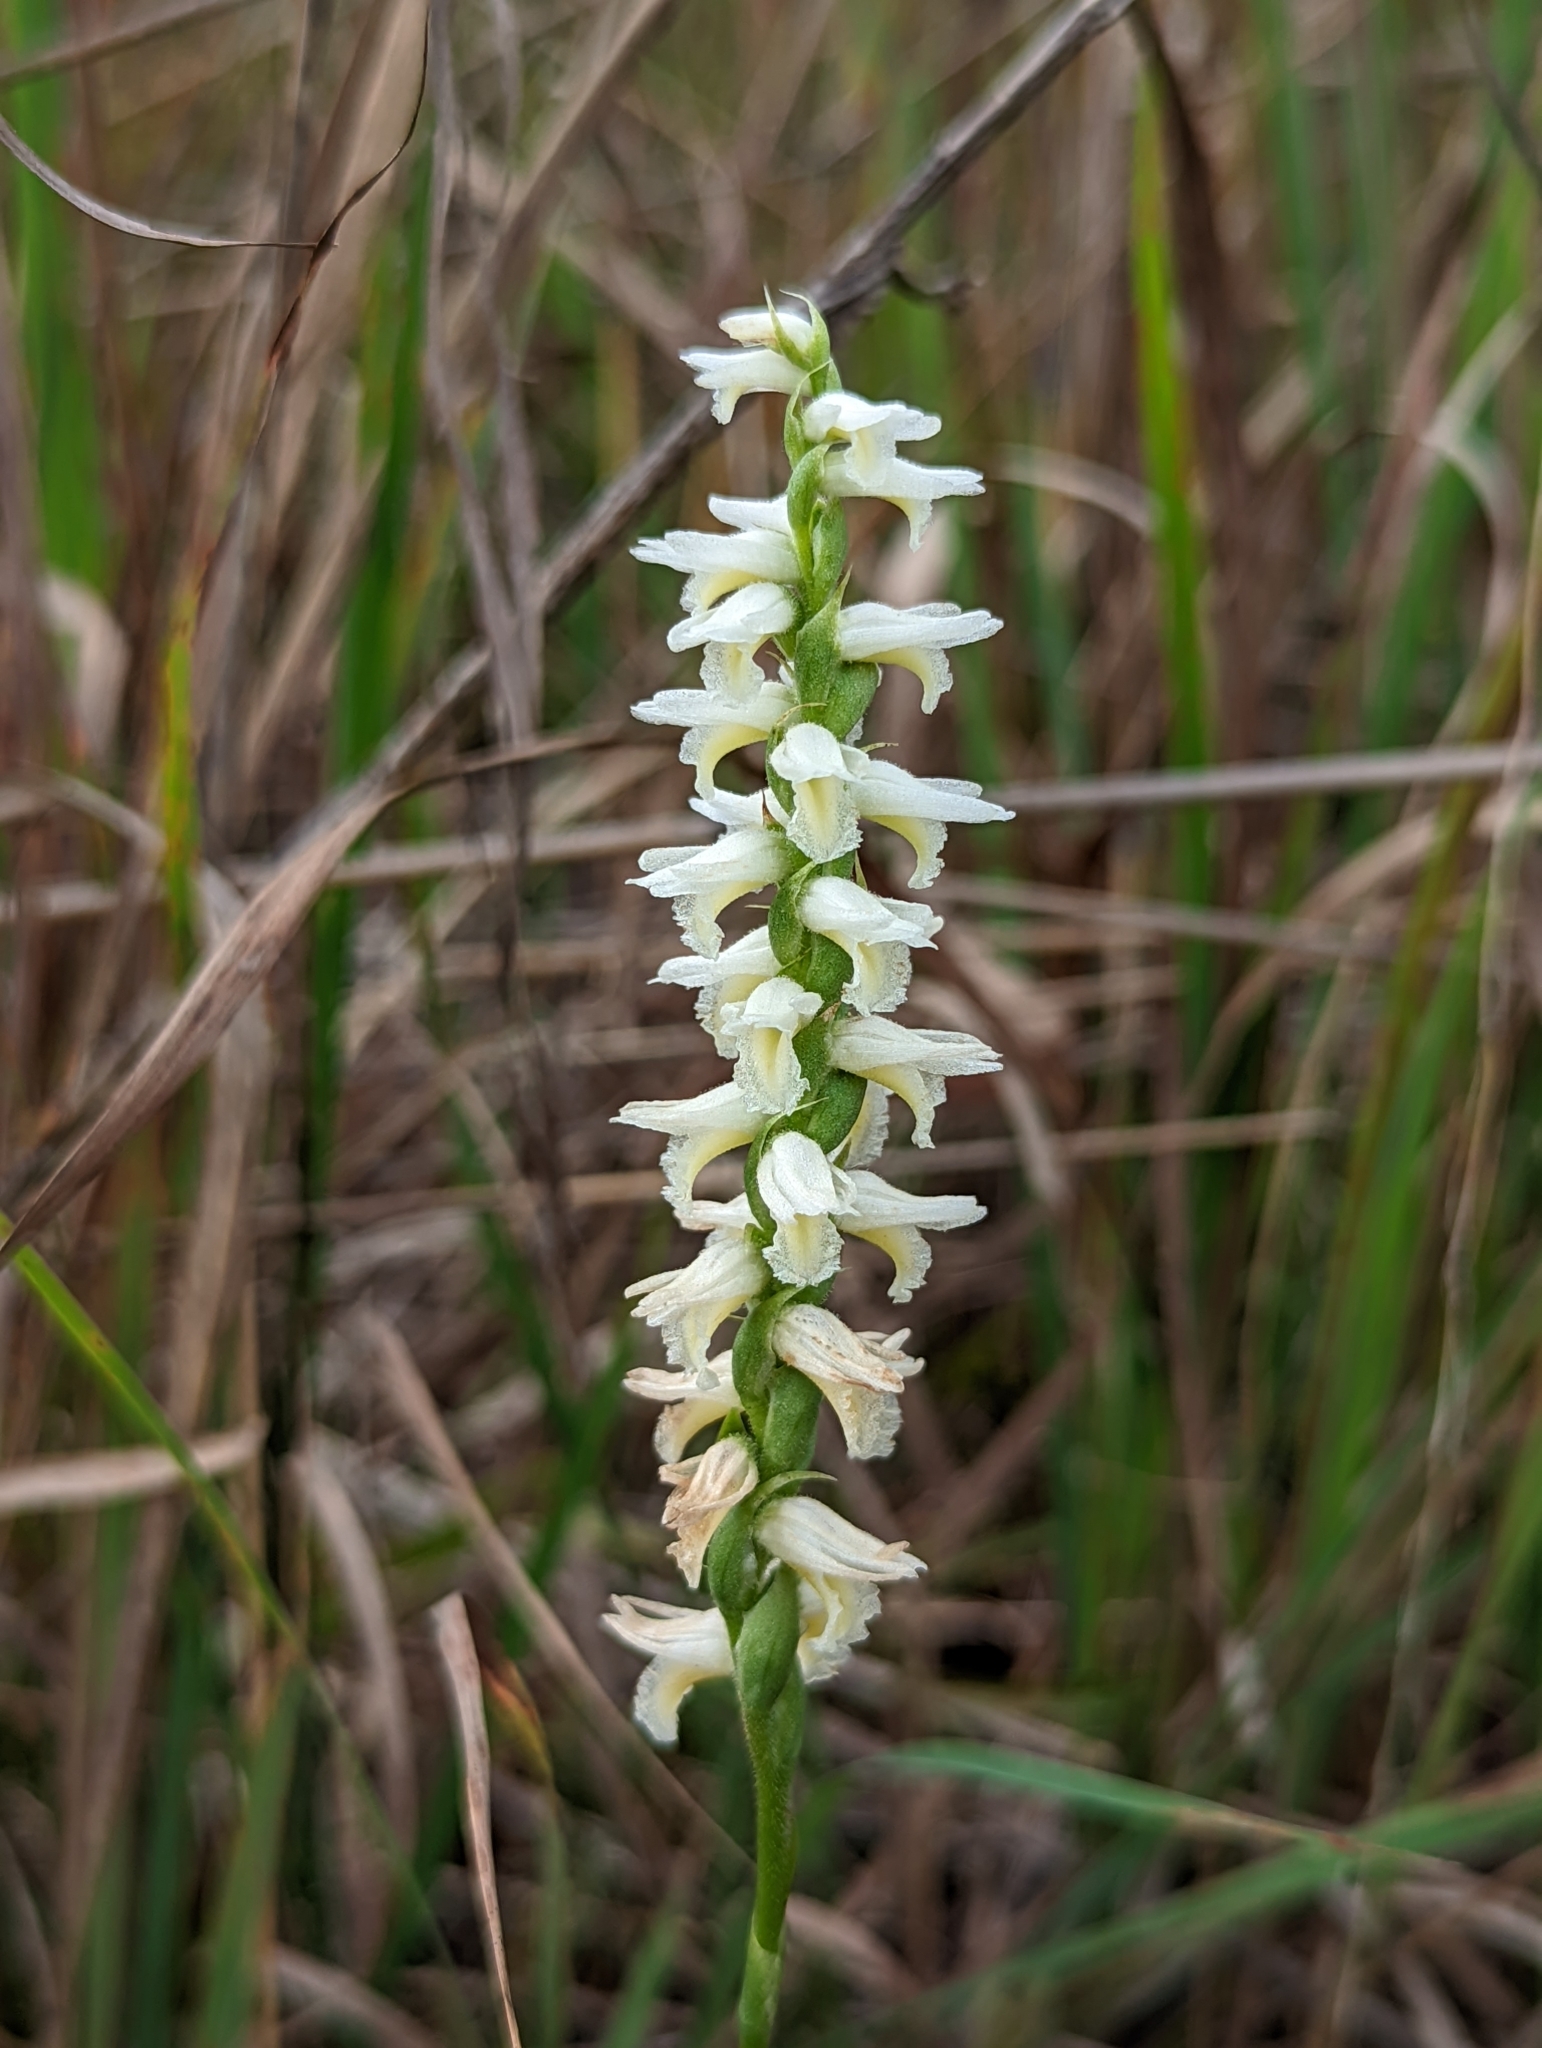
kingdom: Plantae
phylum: Tracheophyta
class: Liliopsida
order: Asparagales
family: Orchidaceae
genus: Spiranthes
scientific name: Spiranthes magnicamporum
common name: Great plains ladies'-tresses
